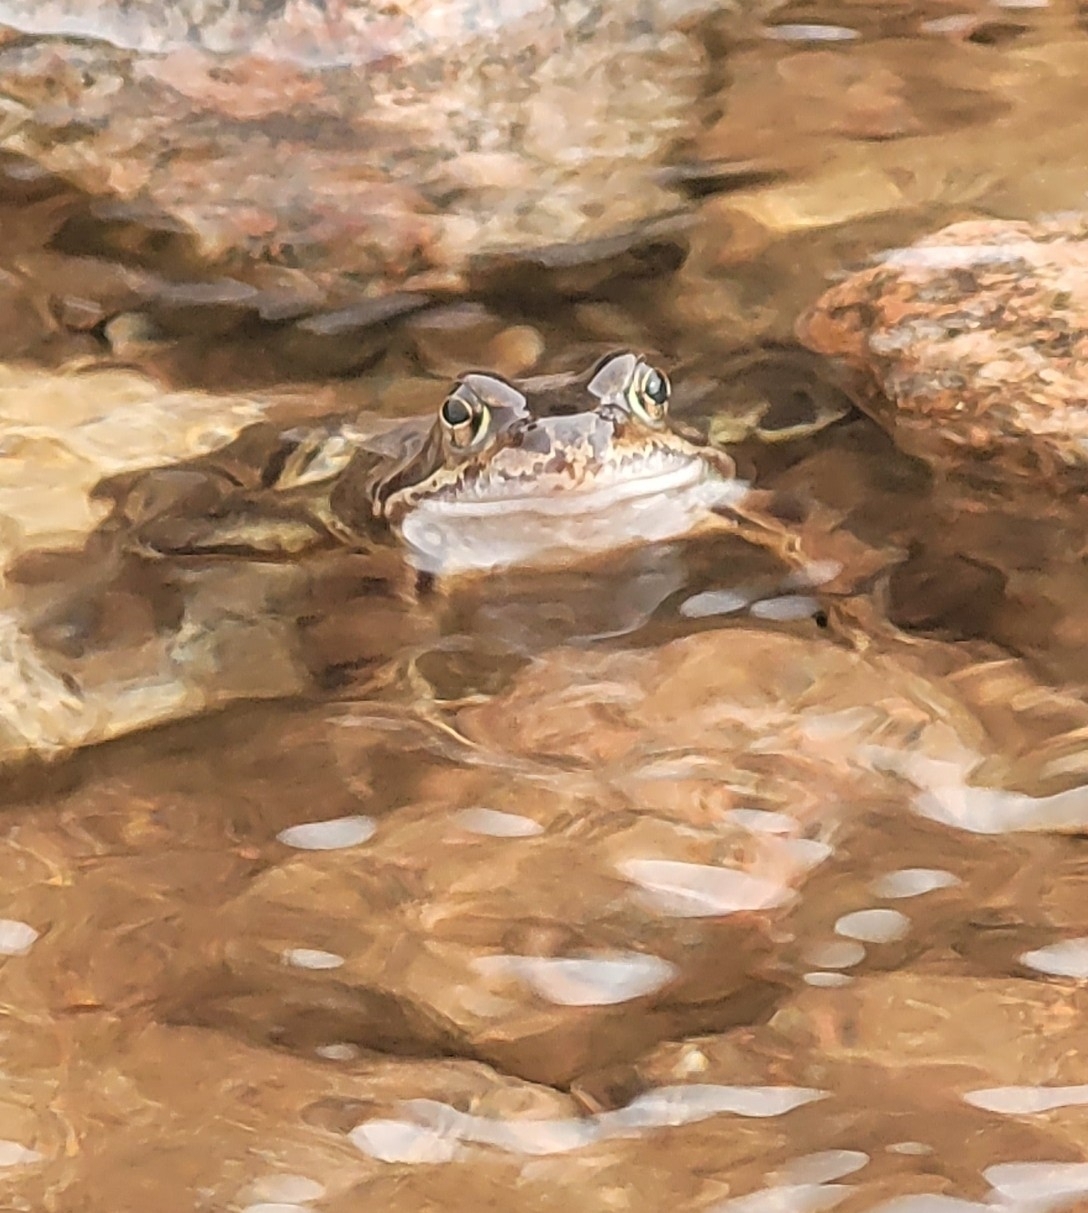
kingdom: Animalia
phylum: Chordata
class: Amphibia
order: Anura
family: Ranidae
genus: Rana
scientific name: Rana temporaria
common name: Common frog
